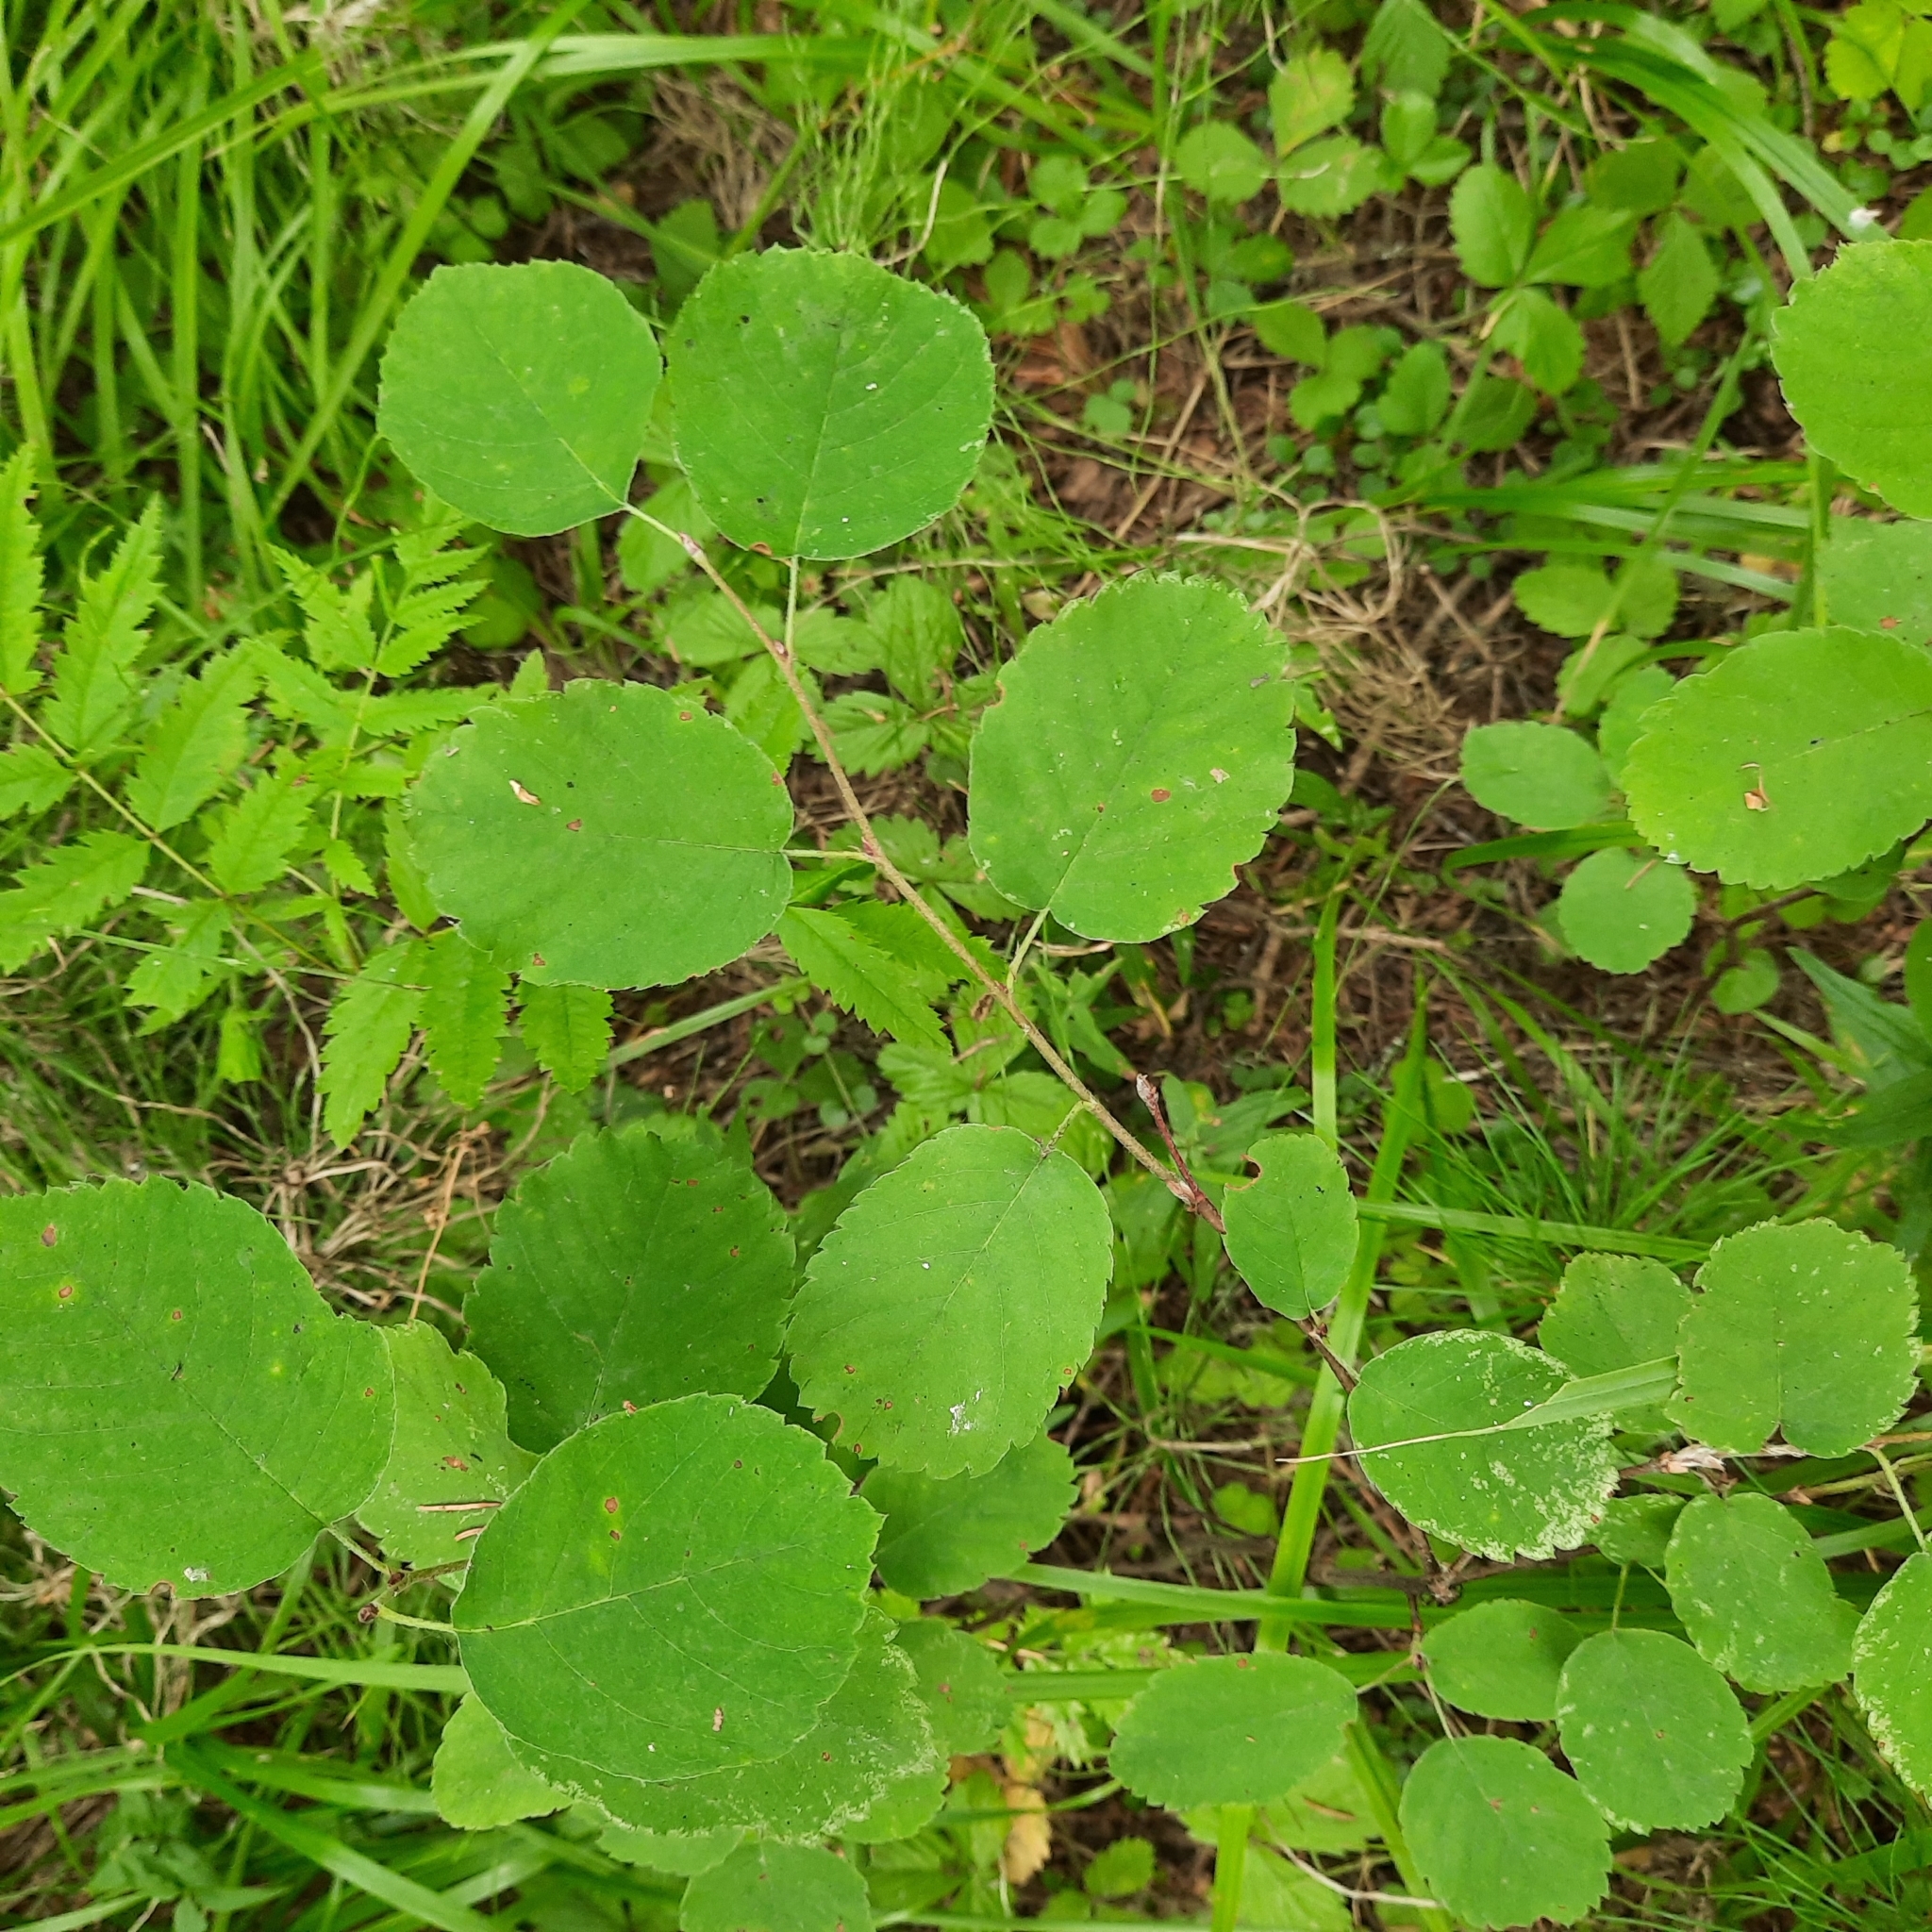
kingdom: Plantae
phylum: Tracheophyta
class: Magnoliopsida
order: Rosales
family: Rosaceae
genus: Amelanchier
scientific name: Amelanchier alnifolia
